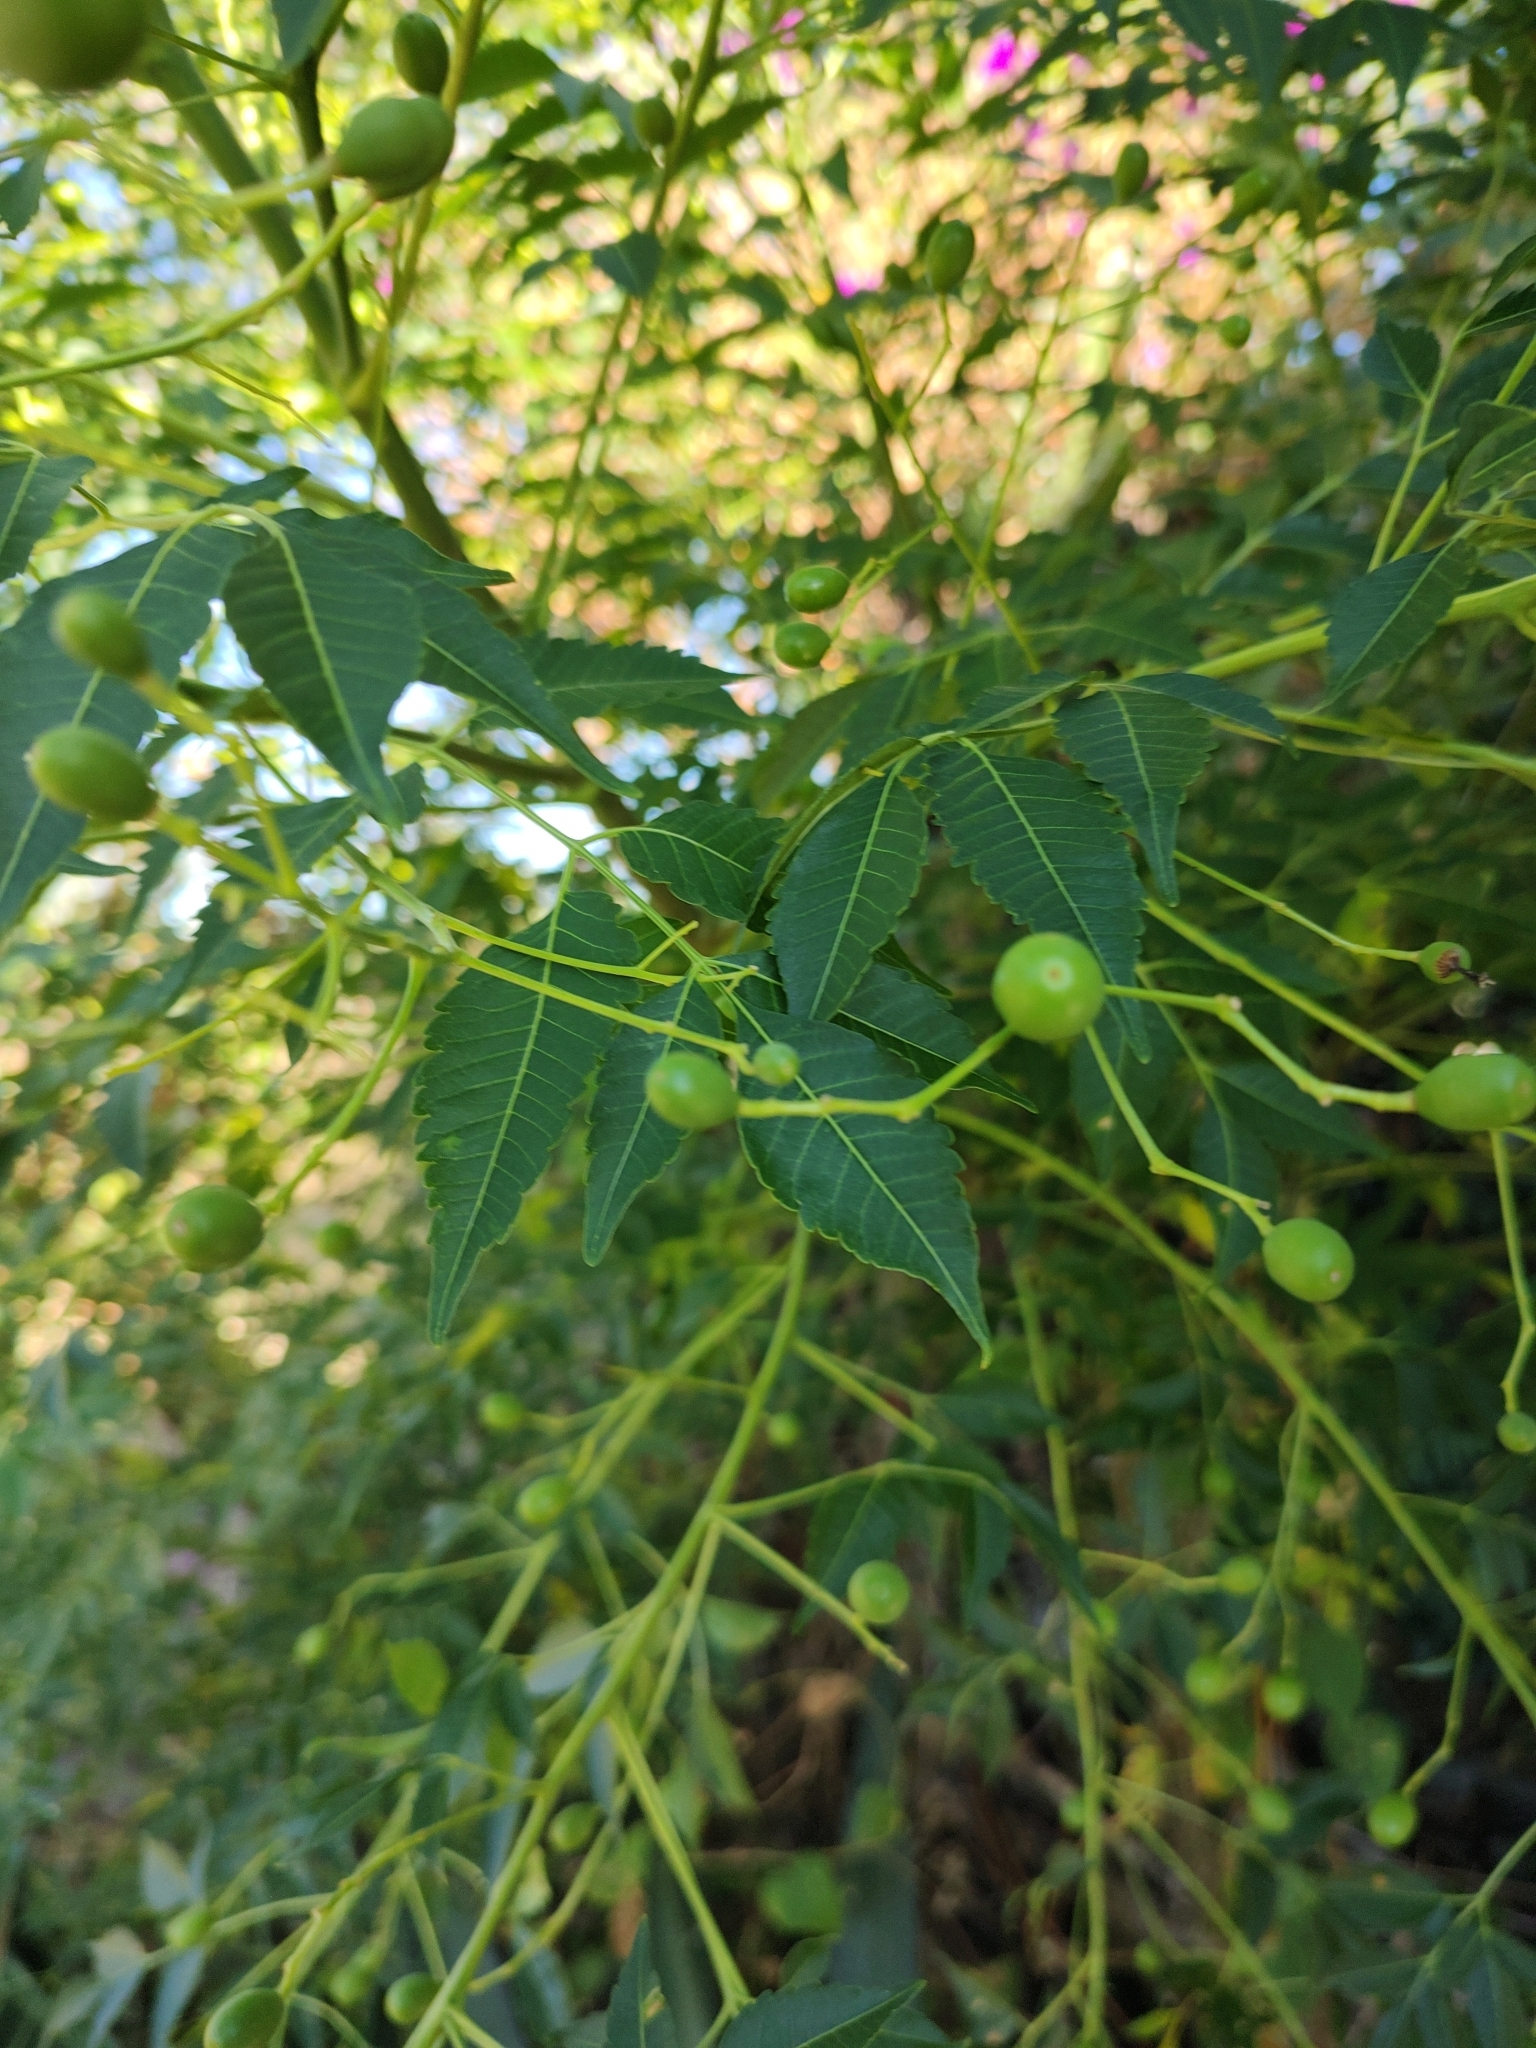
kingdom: Plantae
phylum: Tracheophyta
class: Magnoliopsida
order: Sapindales
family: Meliaceae
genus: Melia
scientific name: Melia azedarach
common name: Chinaberrytree
